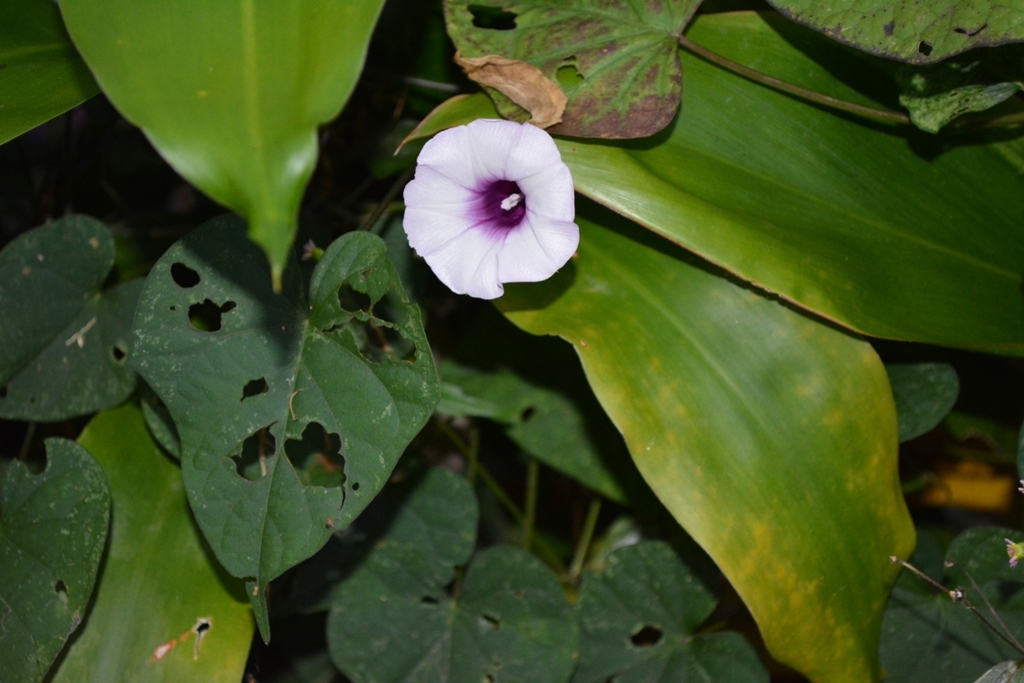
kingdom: Plantae
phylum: Tracheophyta
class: Magnoliopsida
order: Solanales
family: Convolvulaceae
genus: Ipomoea
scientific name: Ipomoea batatas
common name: Sweet-potato
